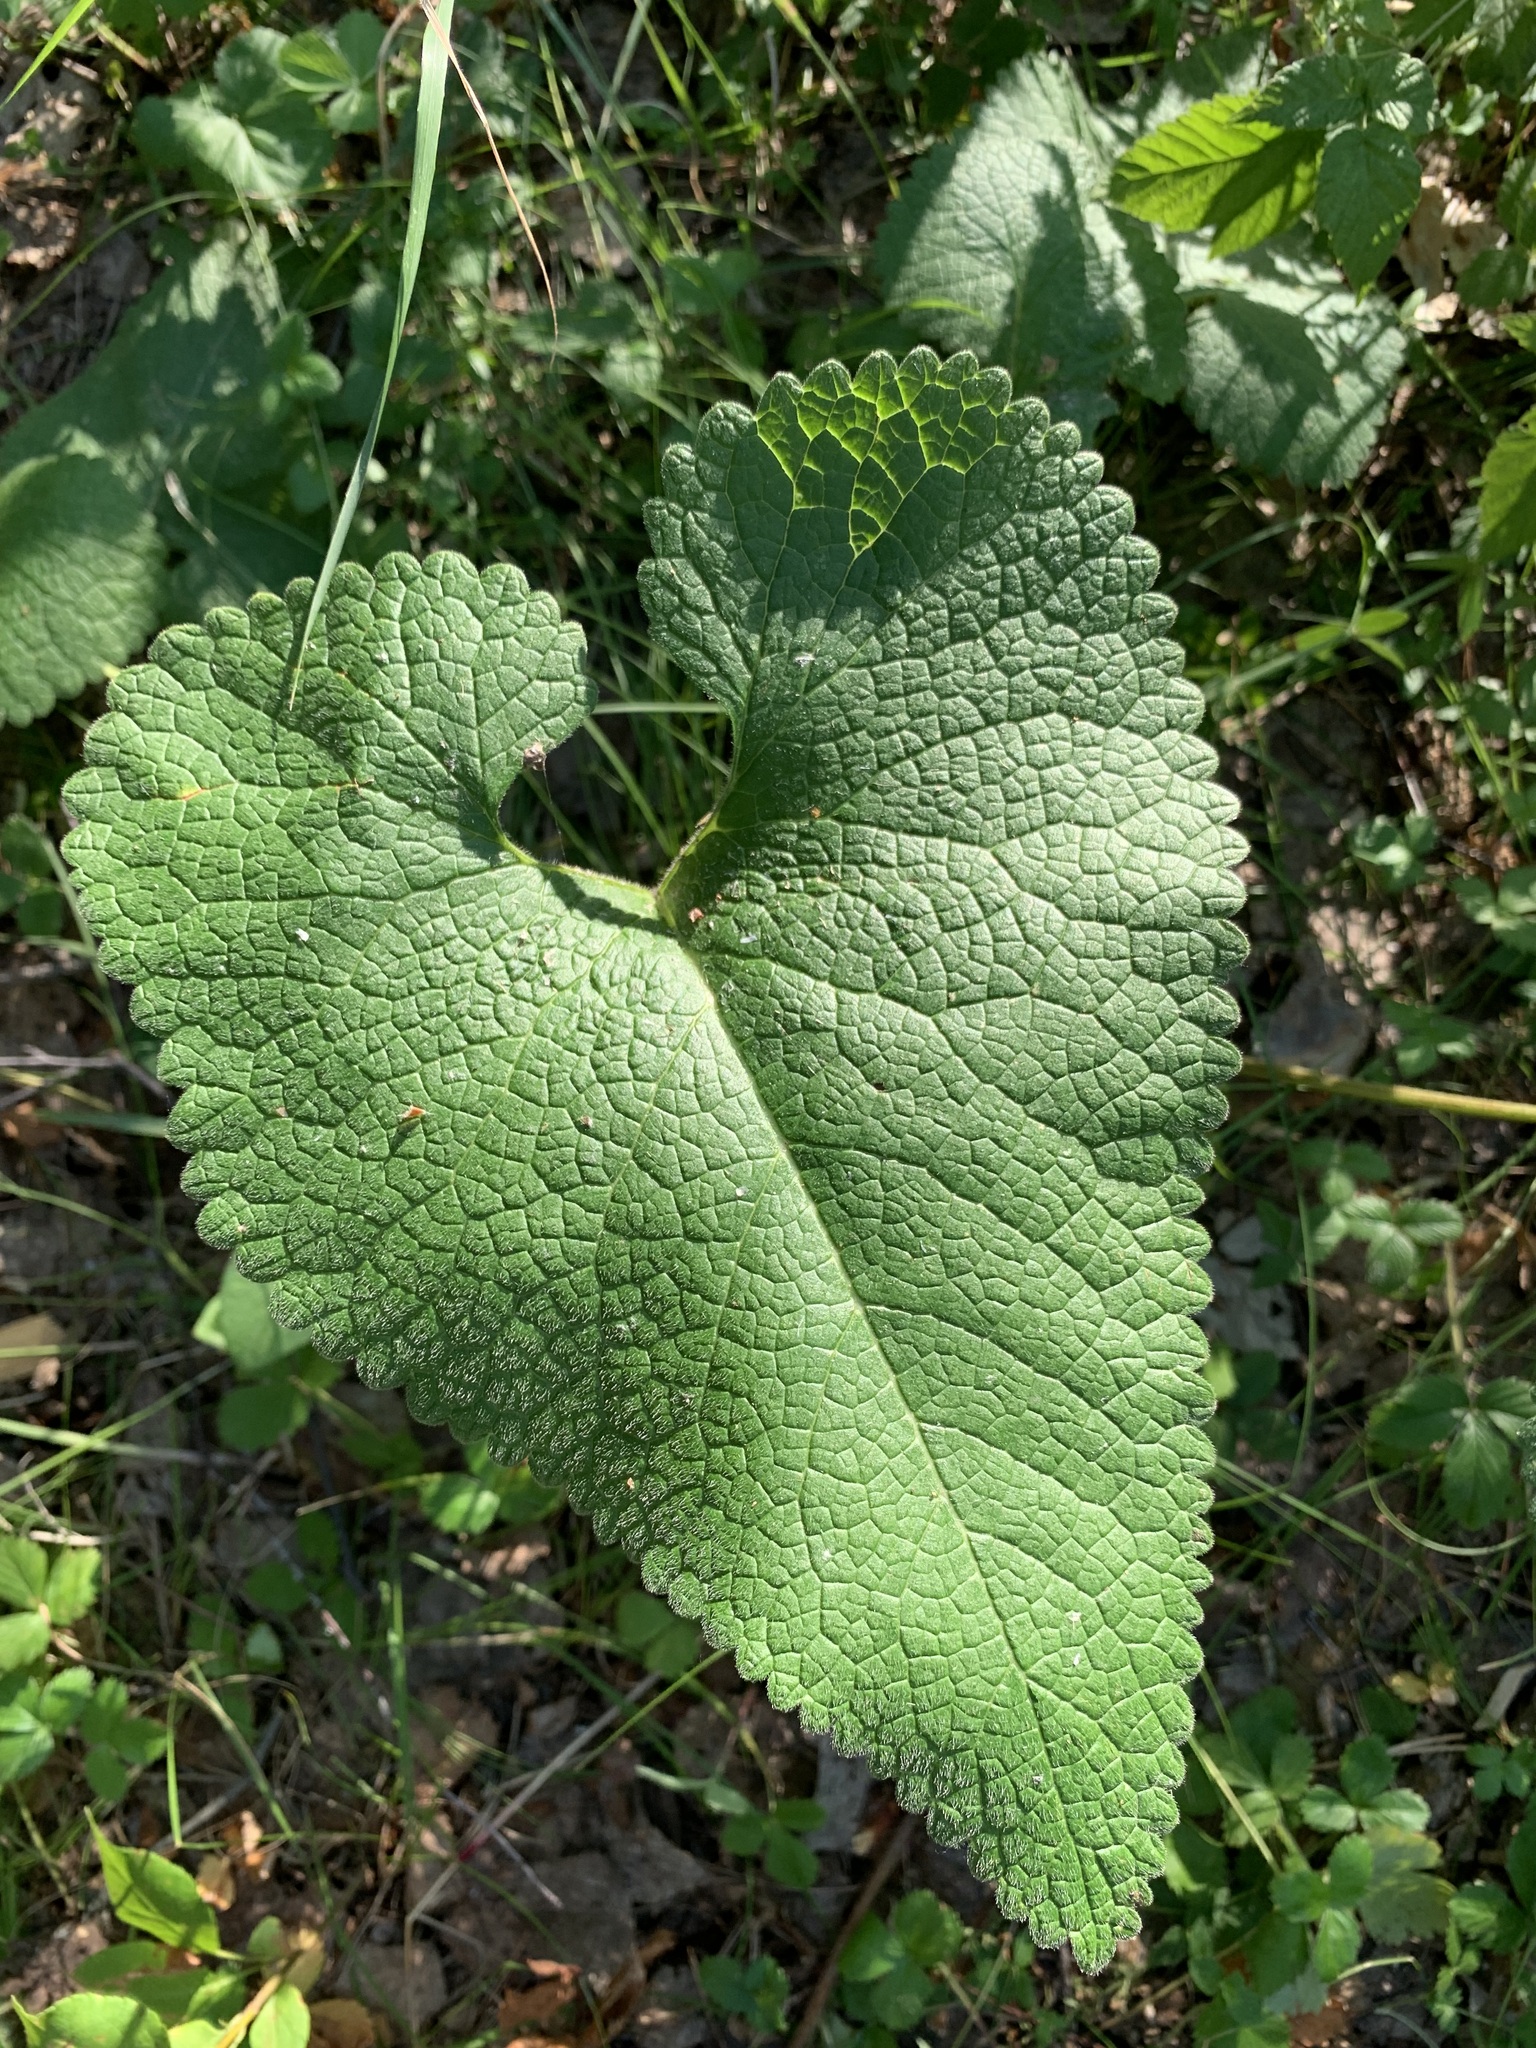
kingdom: Plantae
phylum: Tracheophyta
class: Magnoliopsida
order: Lamiales
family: Lamiaceae
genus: Phlomoides
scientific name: Phlomoides tuberosa
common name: Tuberous jerusalem sage
